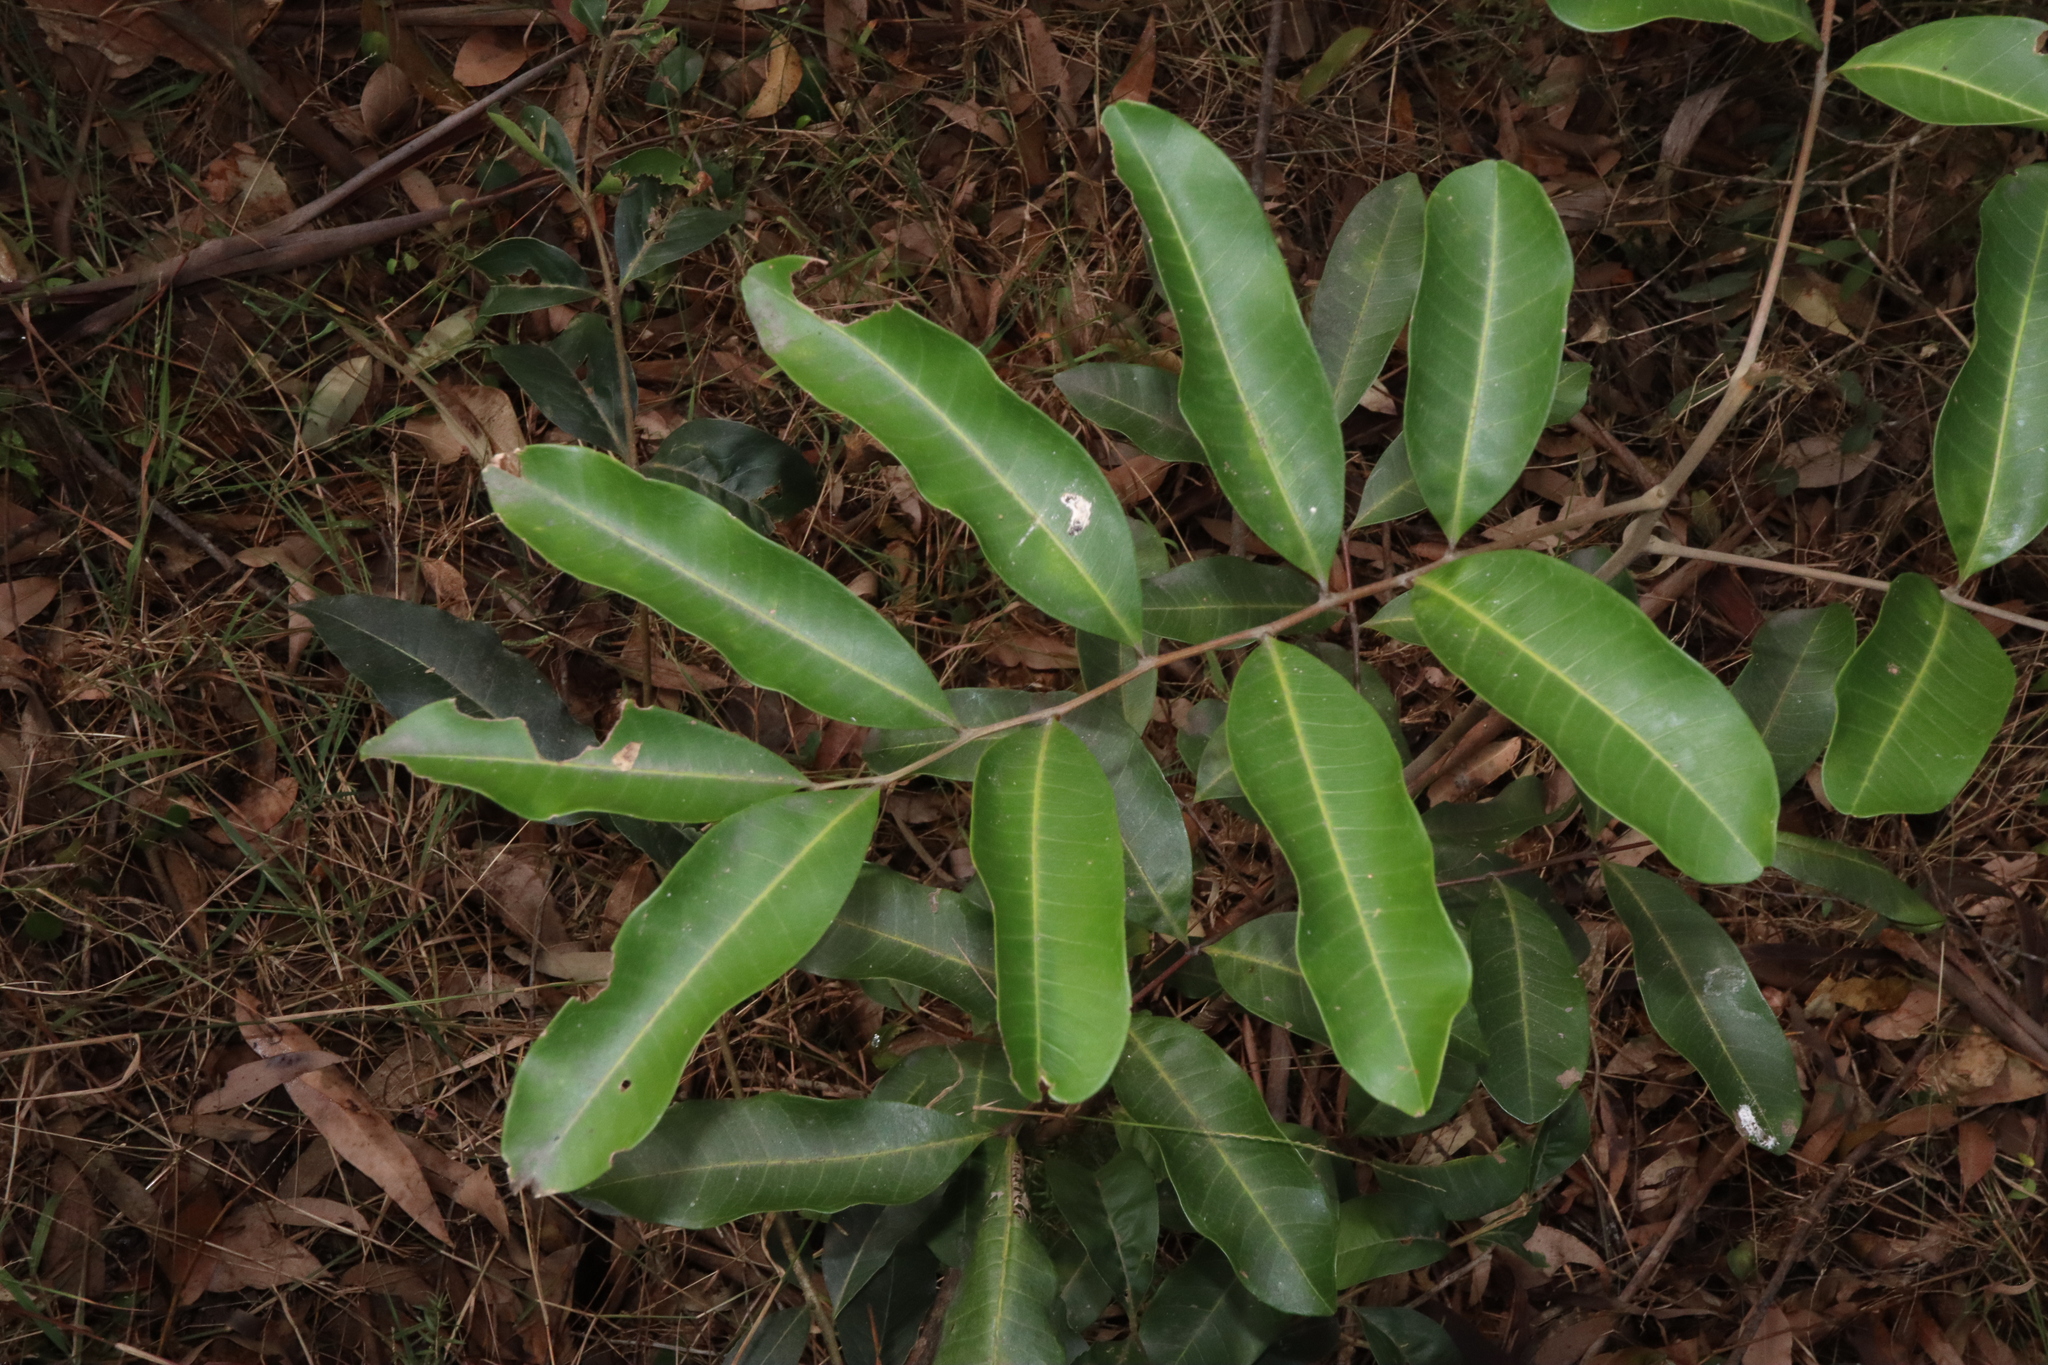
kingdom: Plantae
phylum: Tracheophyta
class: Magnoliopsida
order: Sapindales
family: Sapindaceae
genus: Cupaniopsis
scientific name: Cupaniopsis anacardioides
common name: Carrotwood
